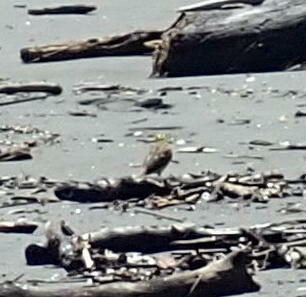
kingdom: Animalia
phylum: Chordata
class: Aves
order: Passeriformes
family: Emberizidae
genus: Emberiza
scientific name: Emberiza citrinella
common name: Yellowhammer
